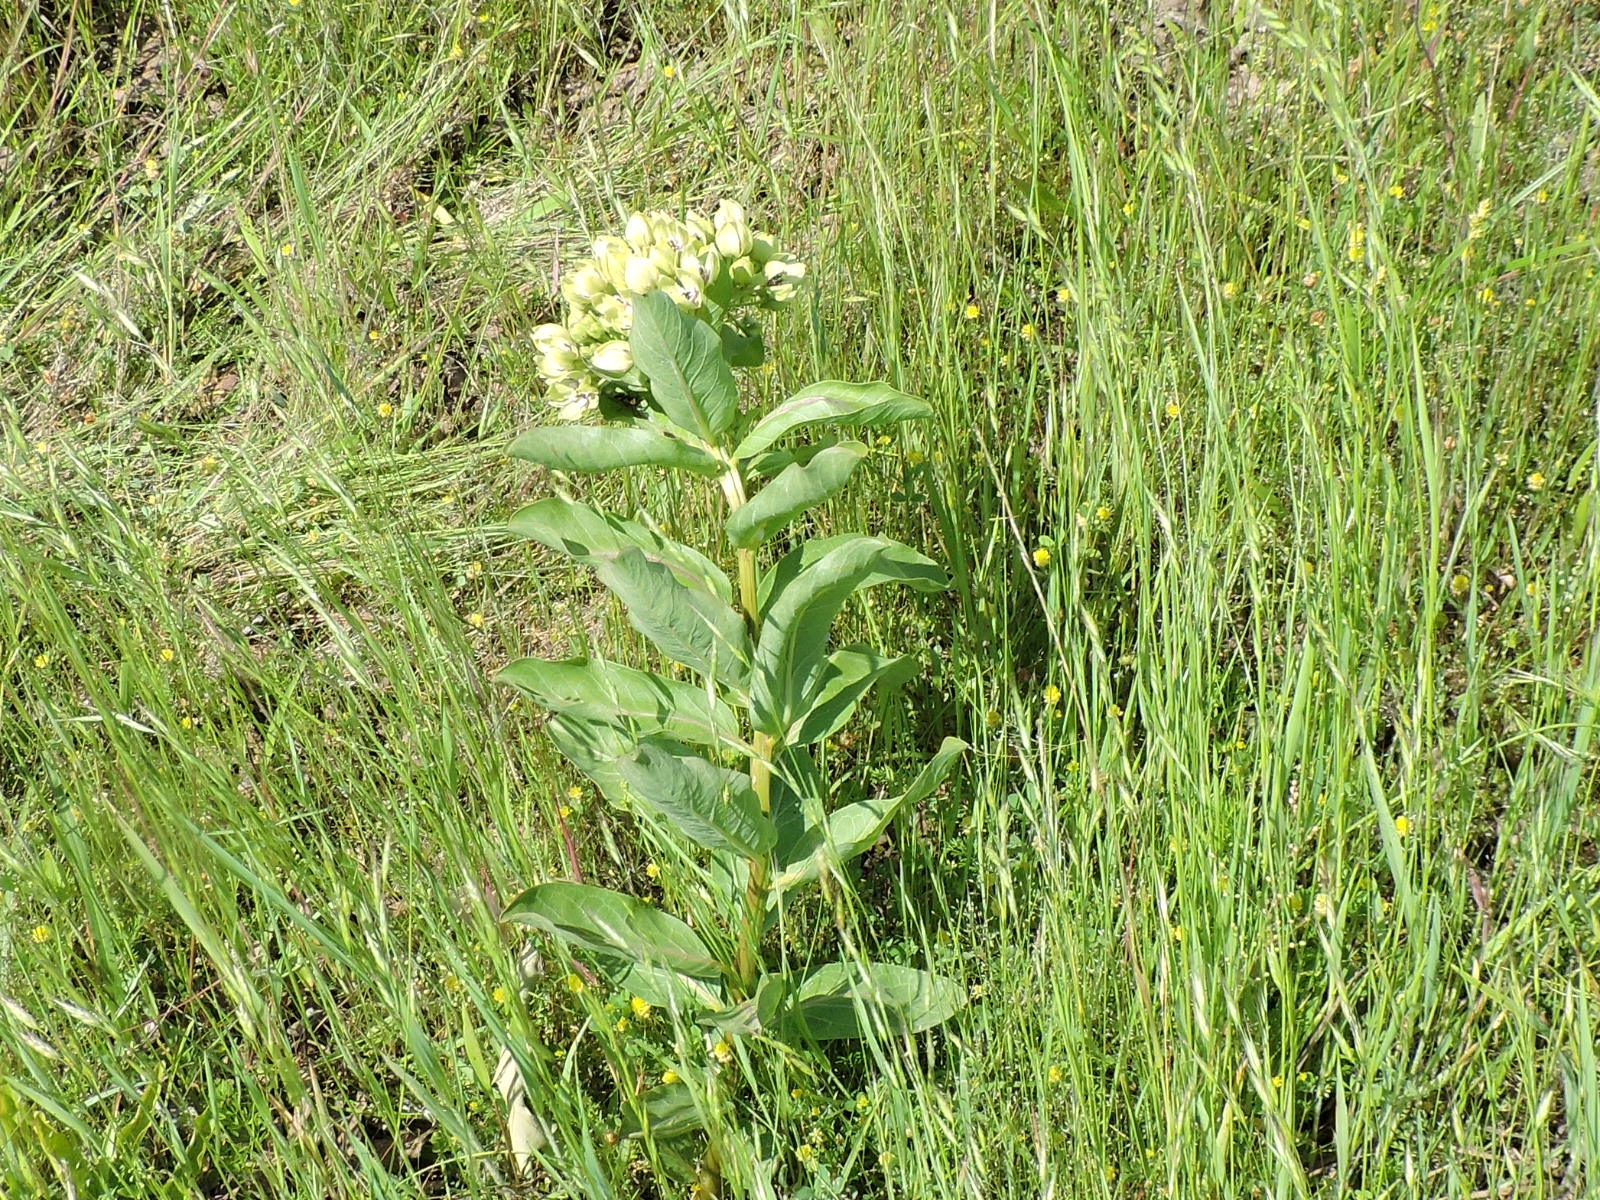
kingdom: Plantae
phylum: Tracheophyta
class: Magnoliopsida
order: Gentianales
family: Apocynaceae
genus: Asclepias
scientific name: Asclepias viridis
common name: Antelope-horns
